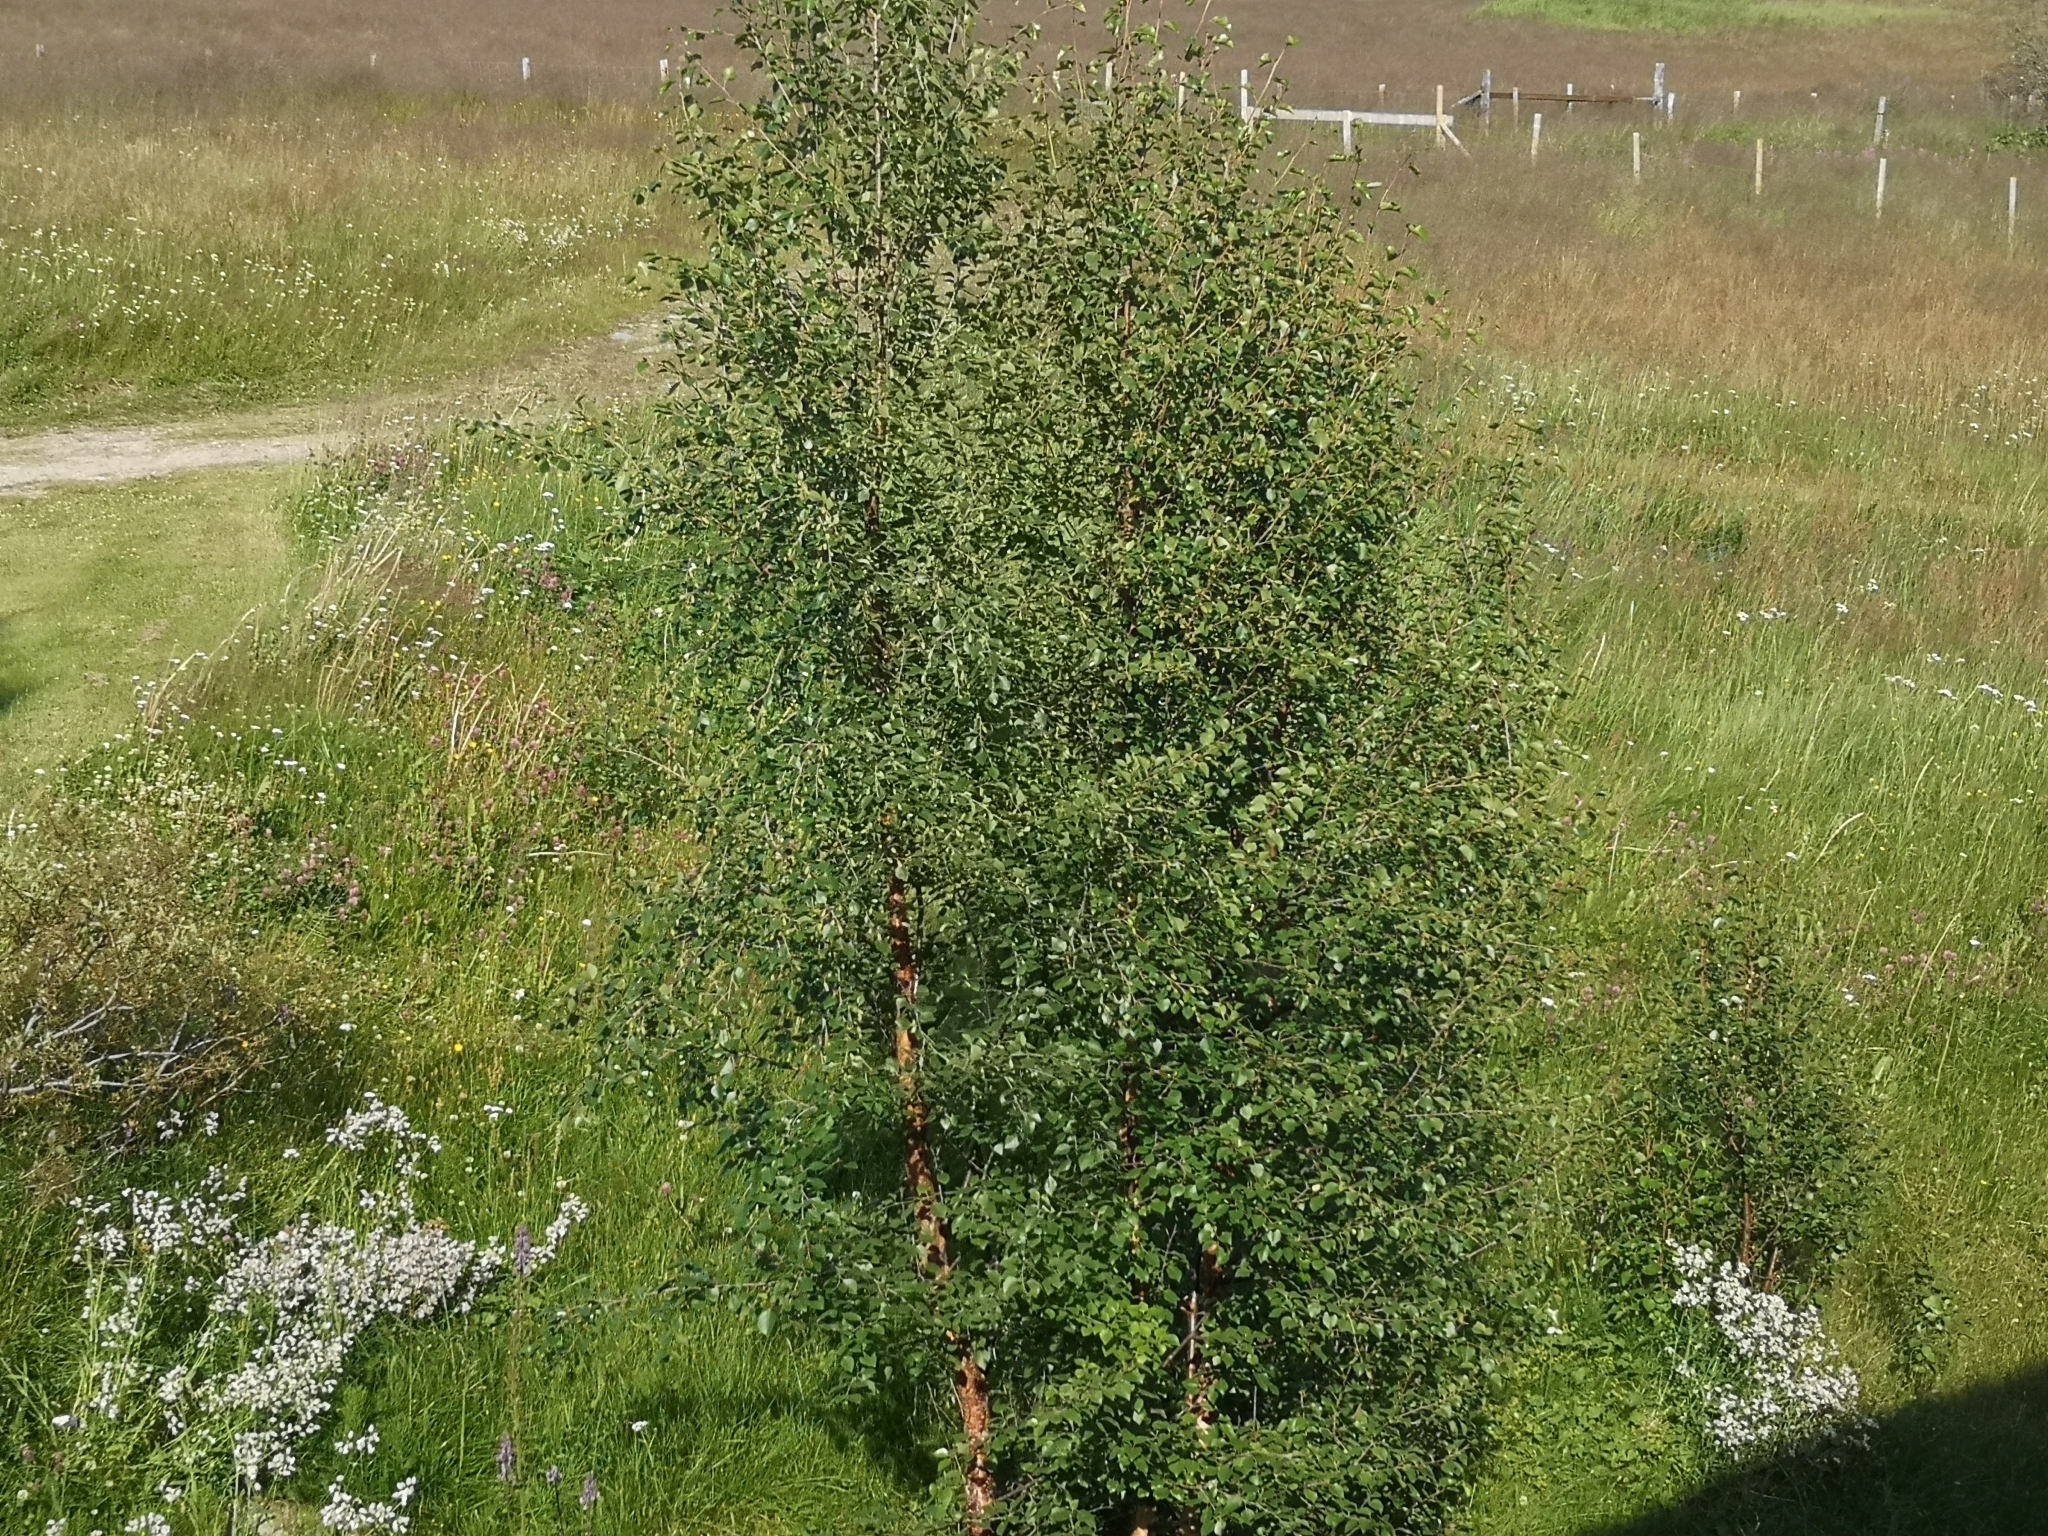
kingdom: Plantae
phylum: Tracheophyta
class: Magnoliopsida
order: Fagales
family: Betulaceae
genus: Betula
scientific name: Betula pubescens
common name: Downy birch
